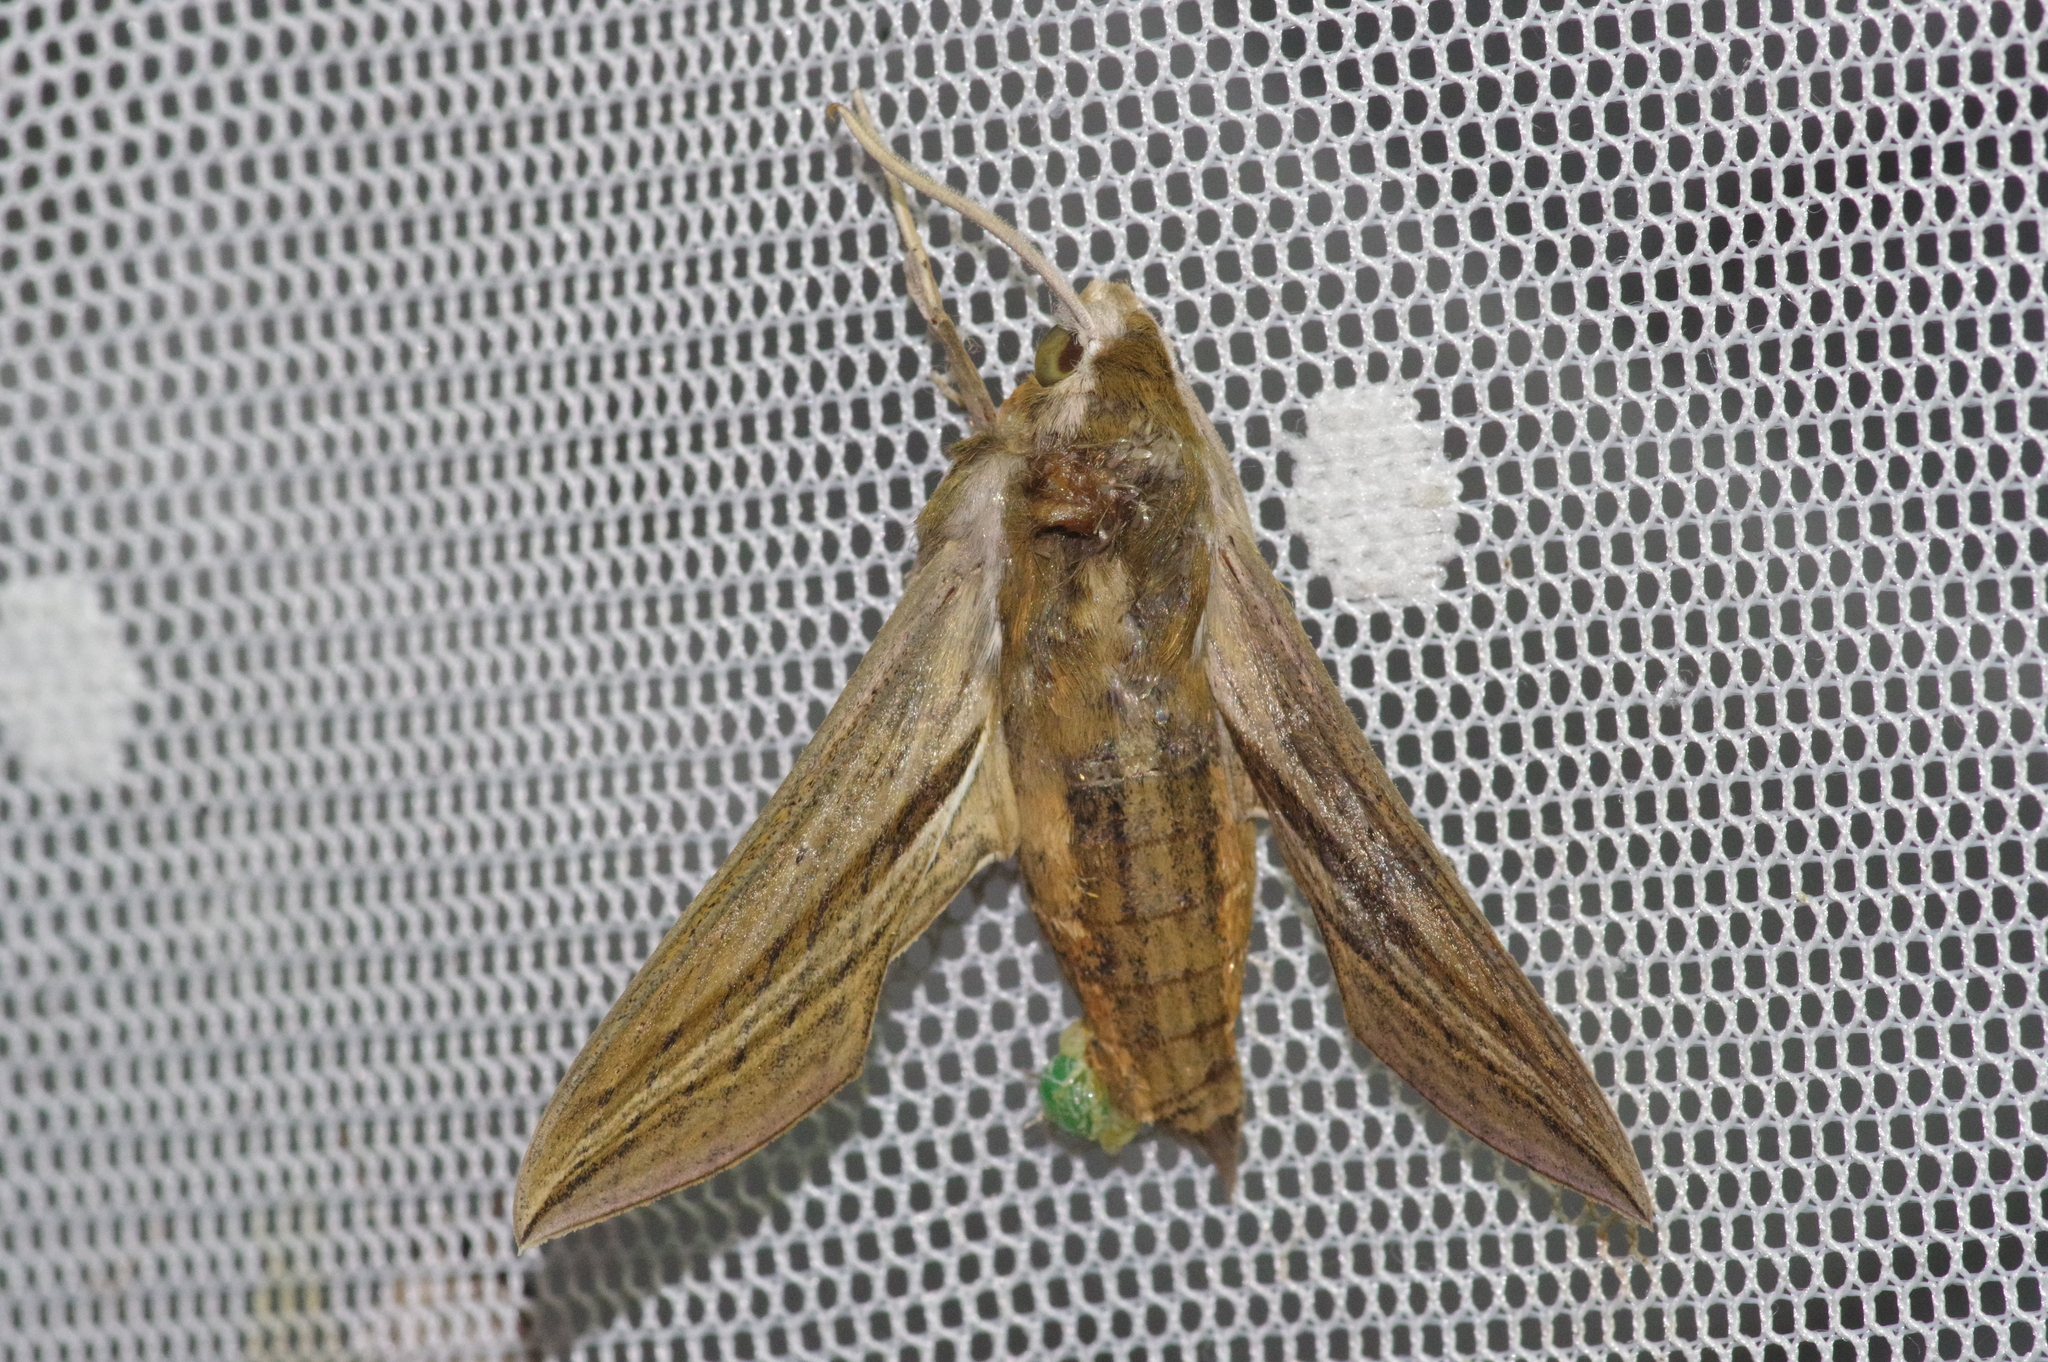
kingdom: Animalia
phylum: Arthropoda
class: Insecta
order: Lepidoptera
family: Sphingidae
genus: Theretra
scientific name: Theretra japonica
